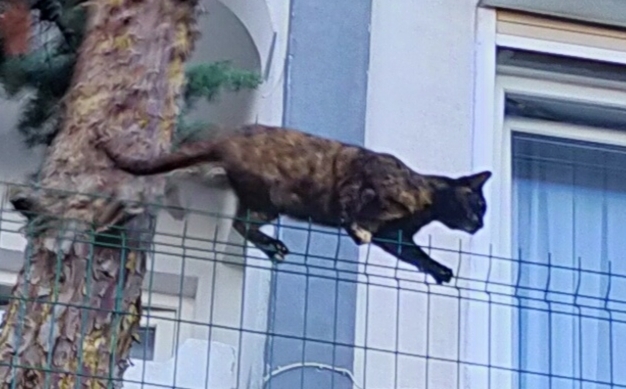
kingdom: Animalia
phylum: Chordata
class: Mammalia
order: Carnivora
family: Felidae
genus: Felis
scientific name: Felis catus
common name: Domestic cat
